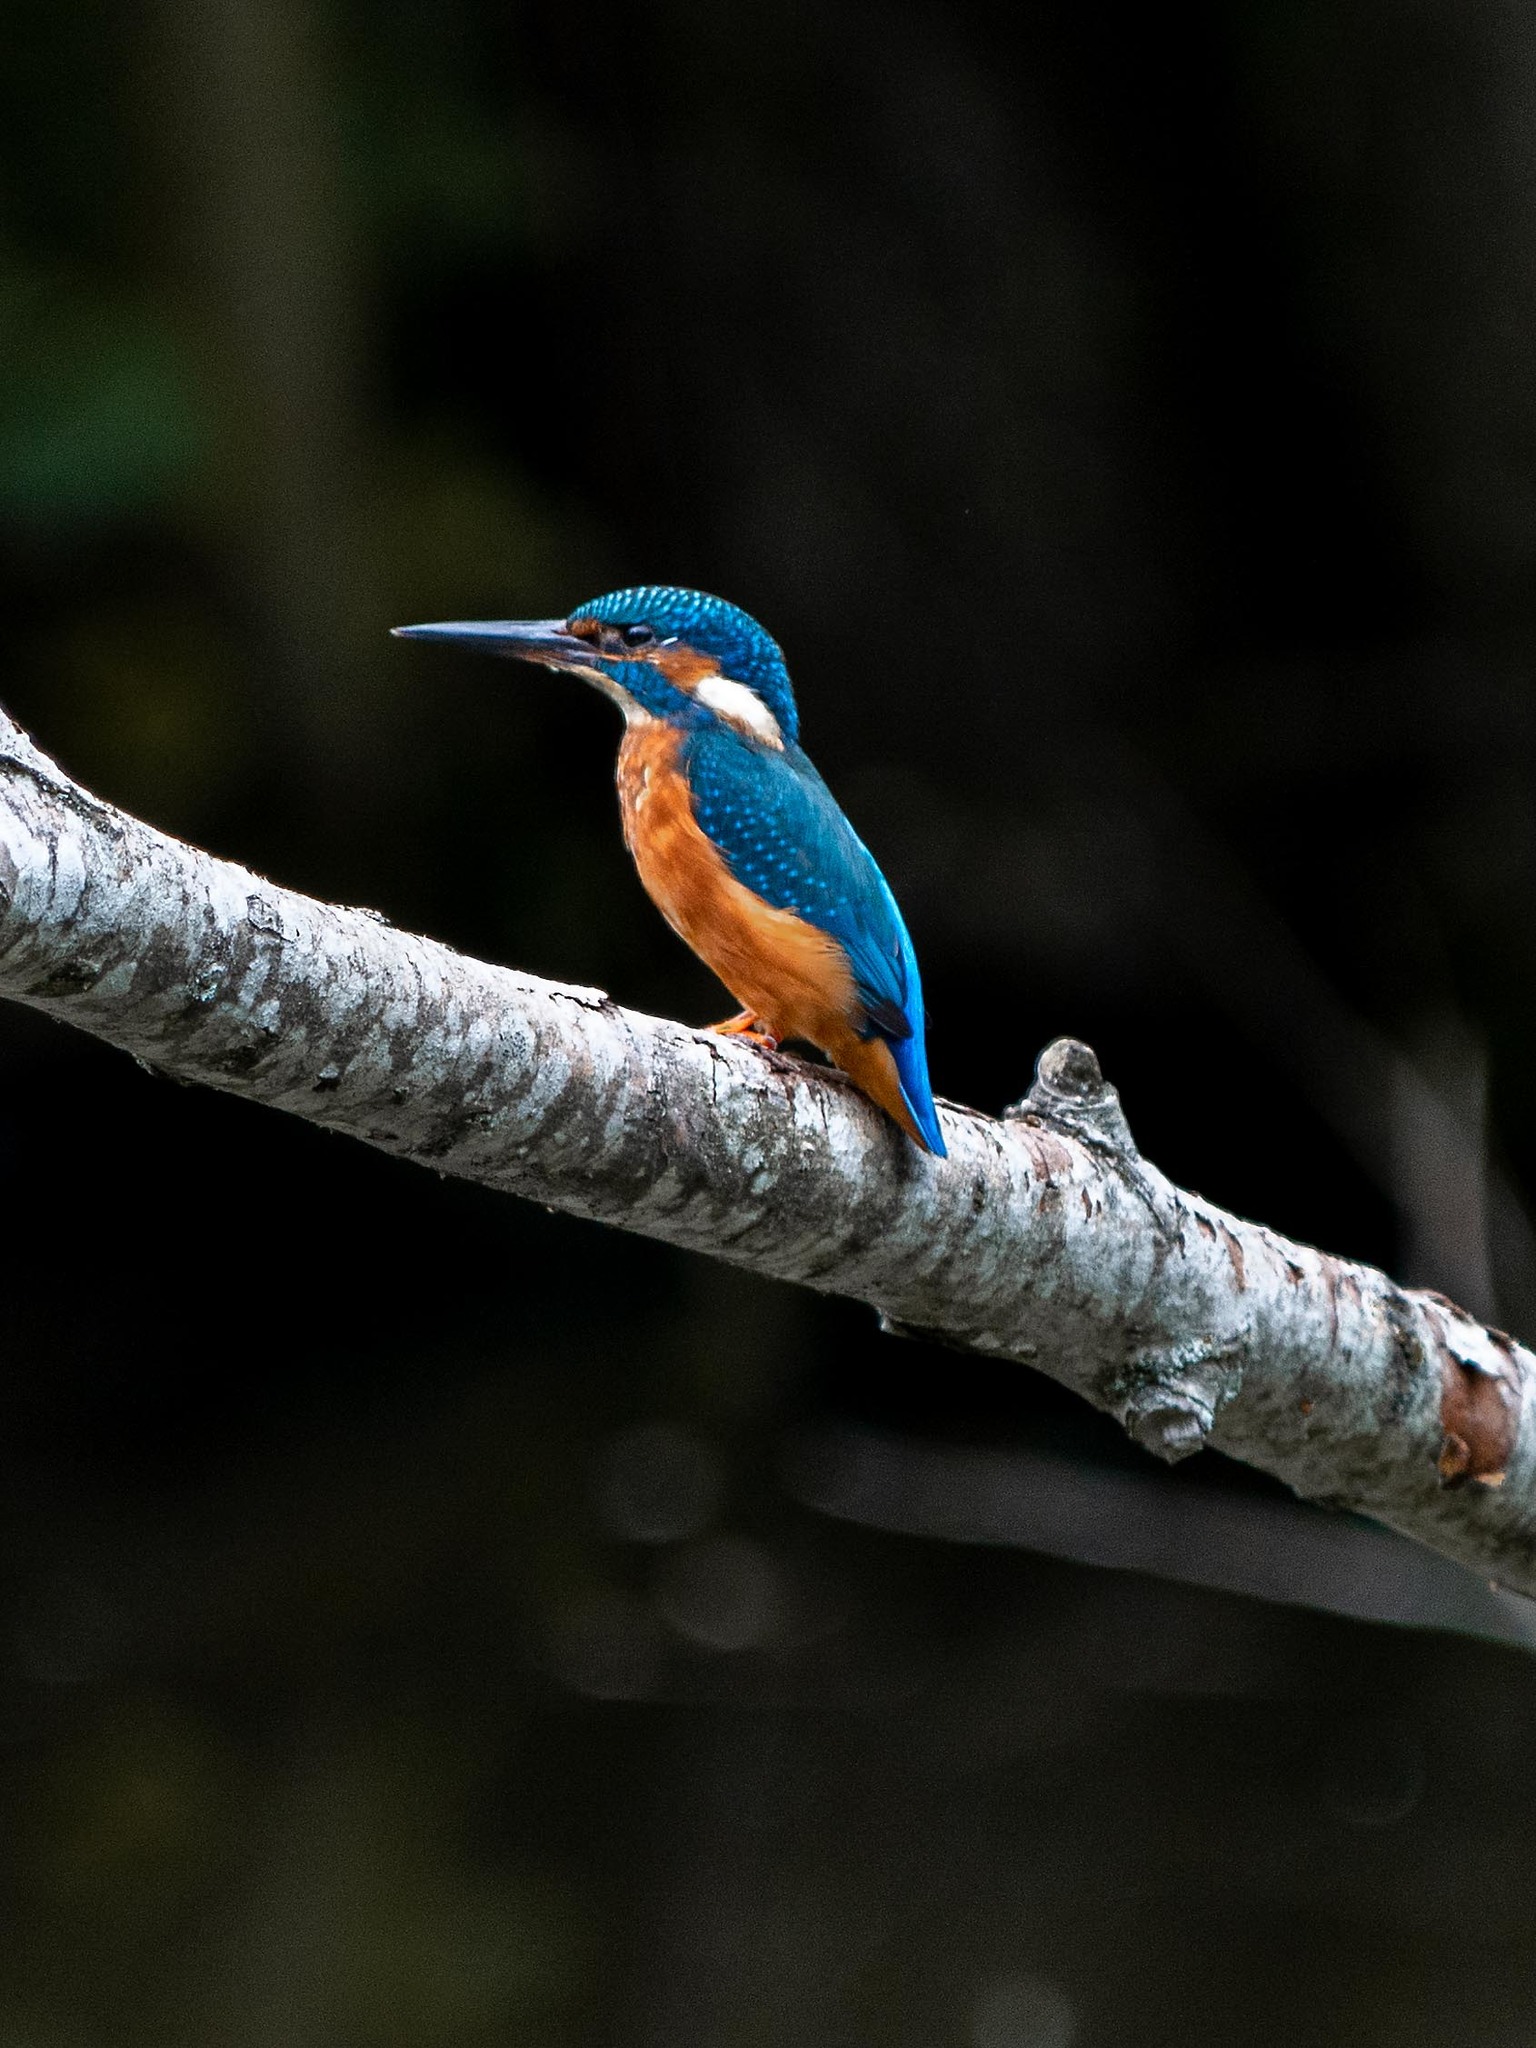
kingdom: Animalia
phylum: Chordata
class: Aves
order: Coraciiformes
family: Alcedinidae
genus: Alcedo
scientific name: Alcedo atthis
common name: Common kingfisher
